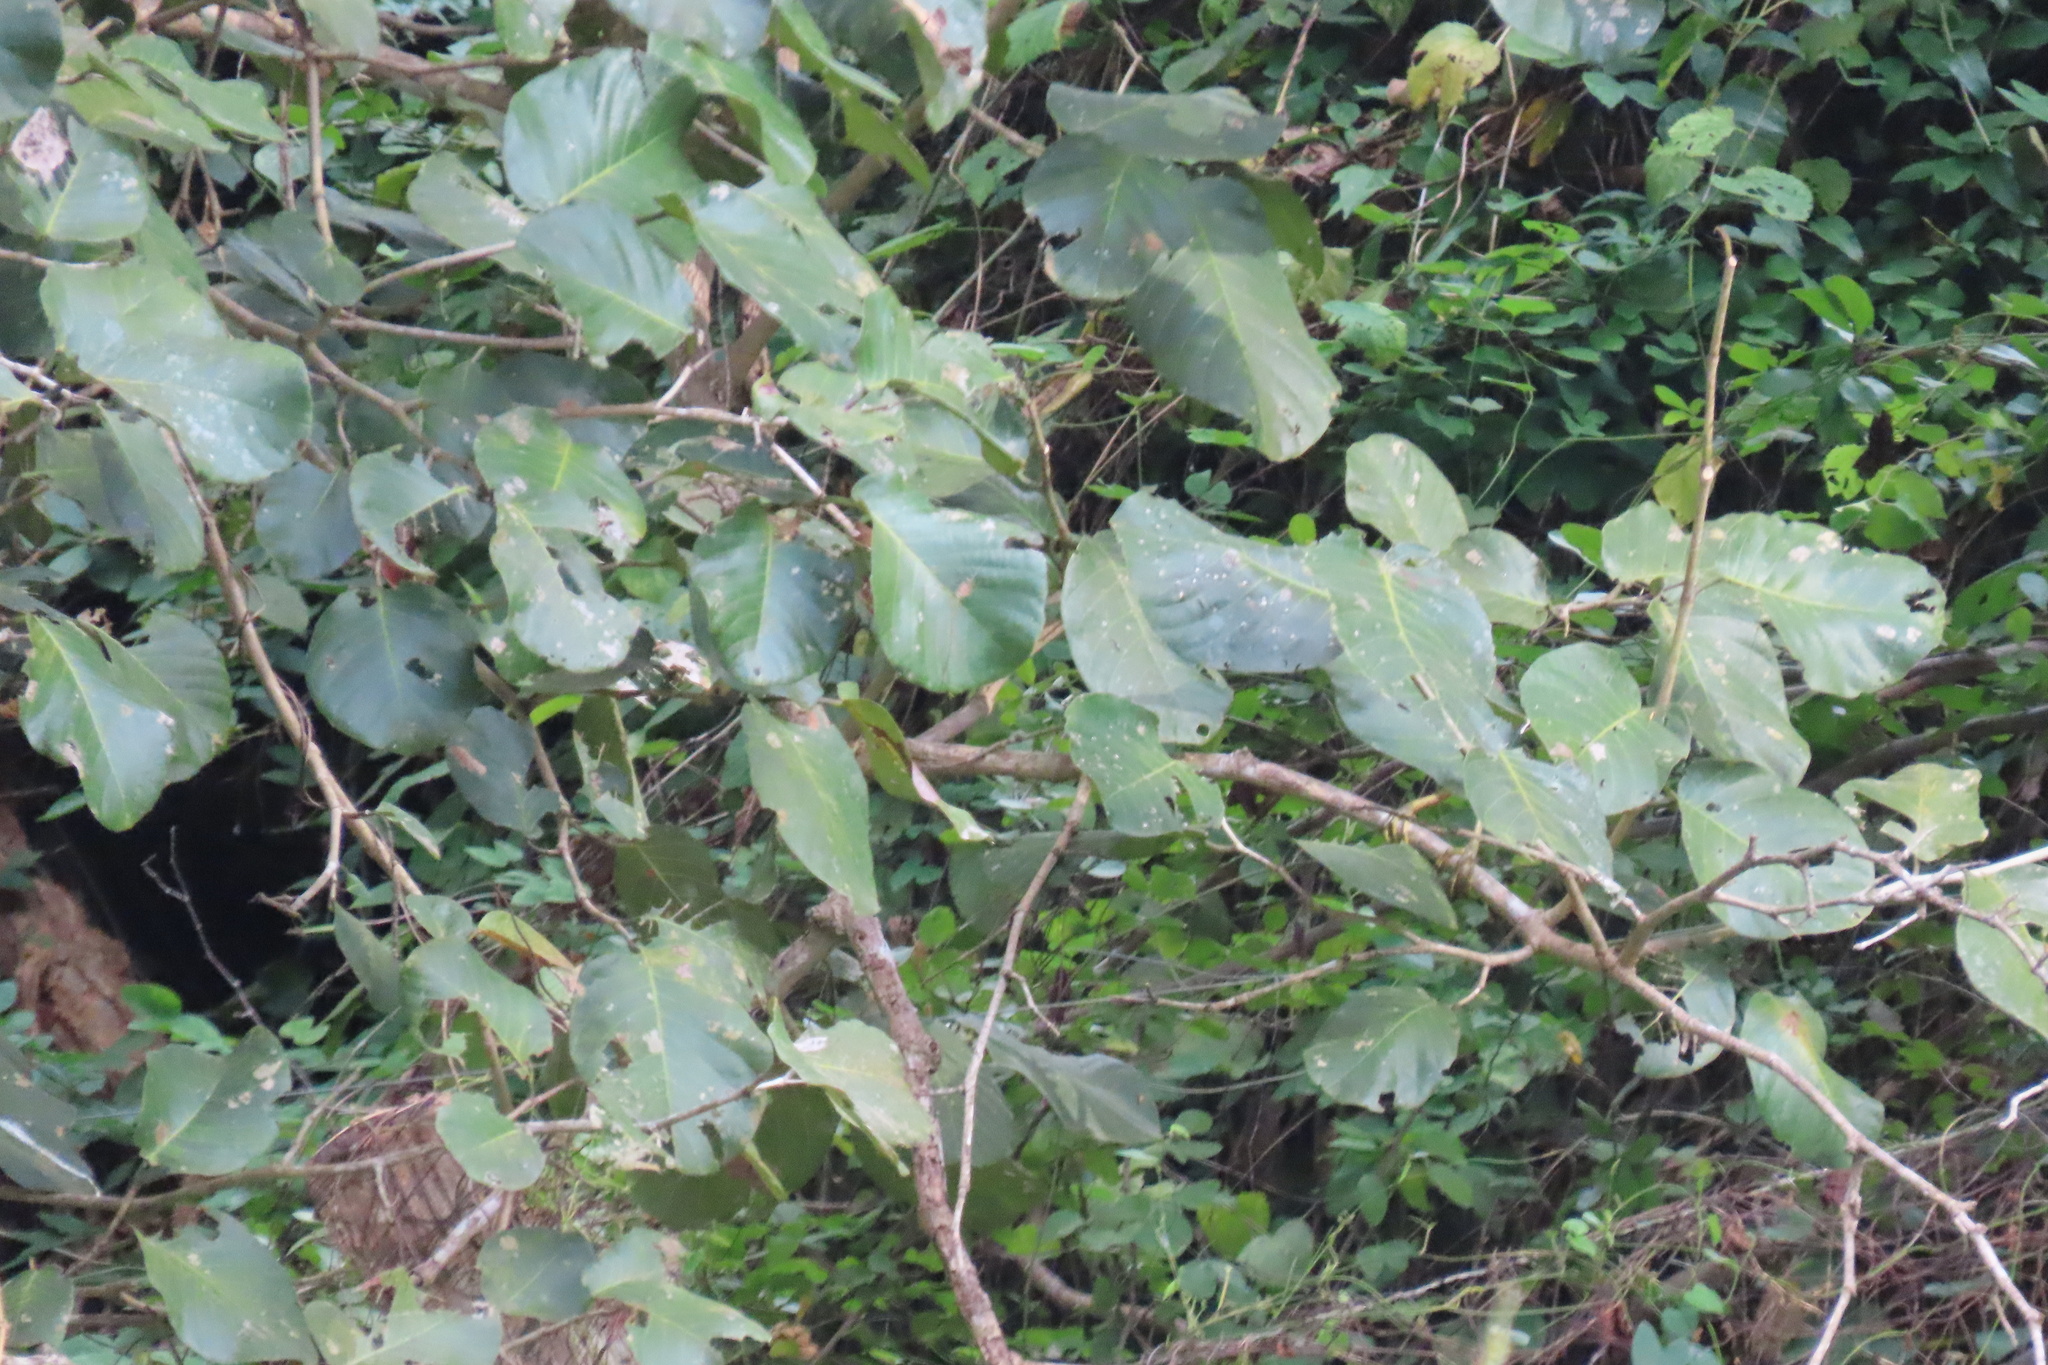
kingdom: Animalia
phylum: Chordata
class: Aves
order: Pelecaniformes
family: Ardeidae
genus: Butorides
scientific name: Butorides virescens
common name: Green heron
